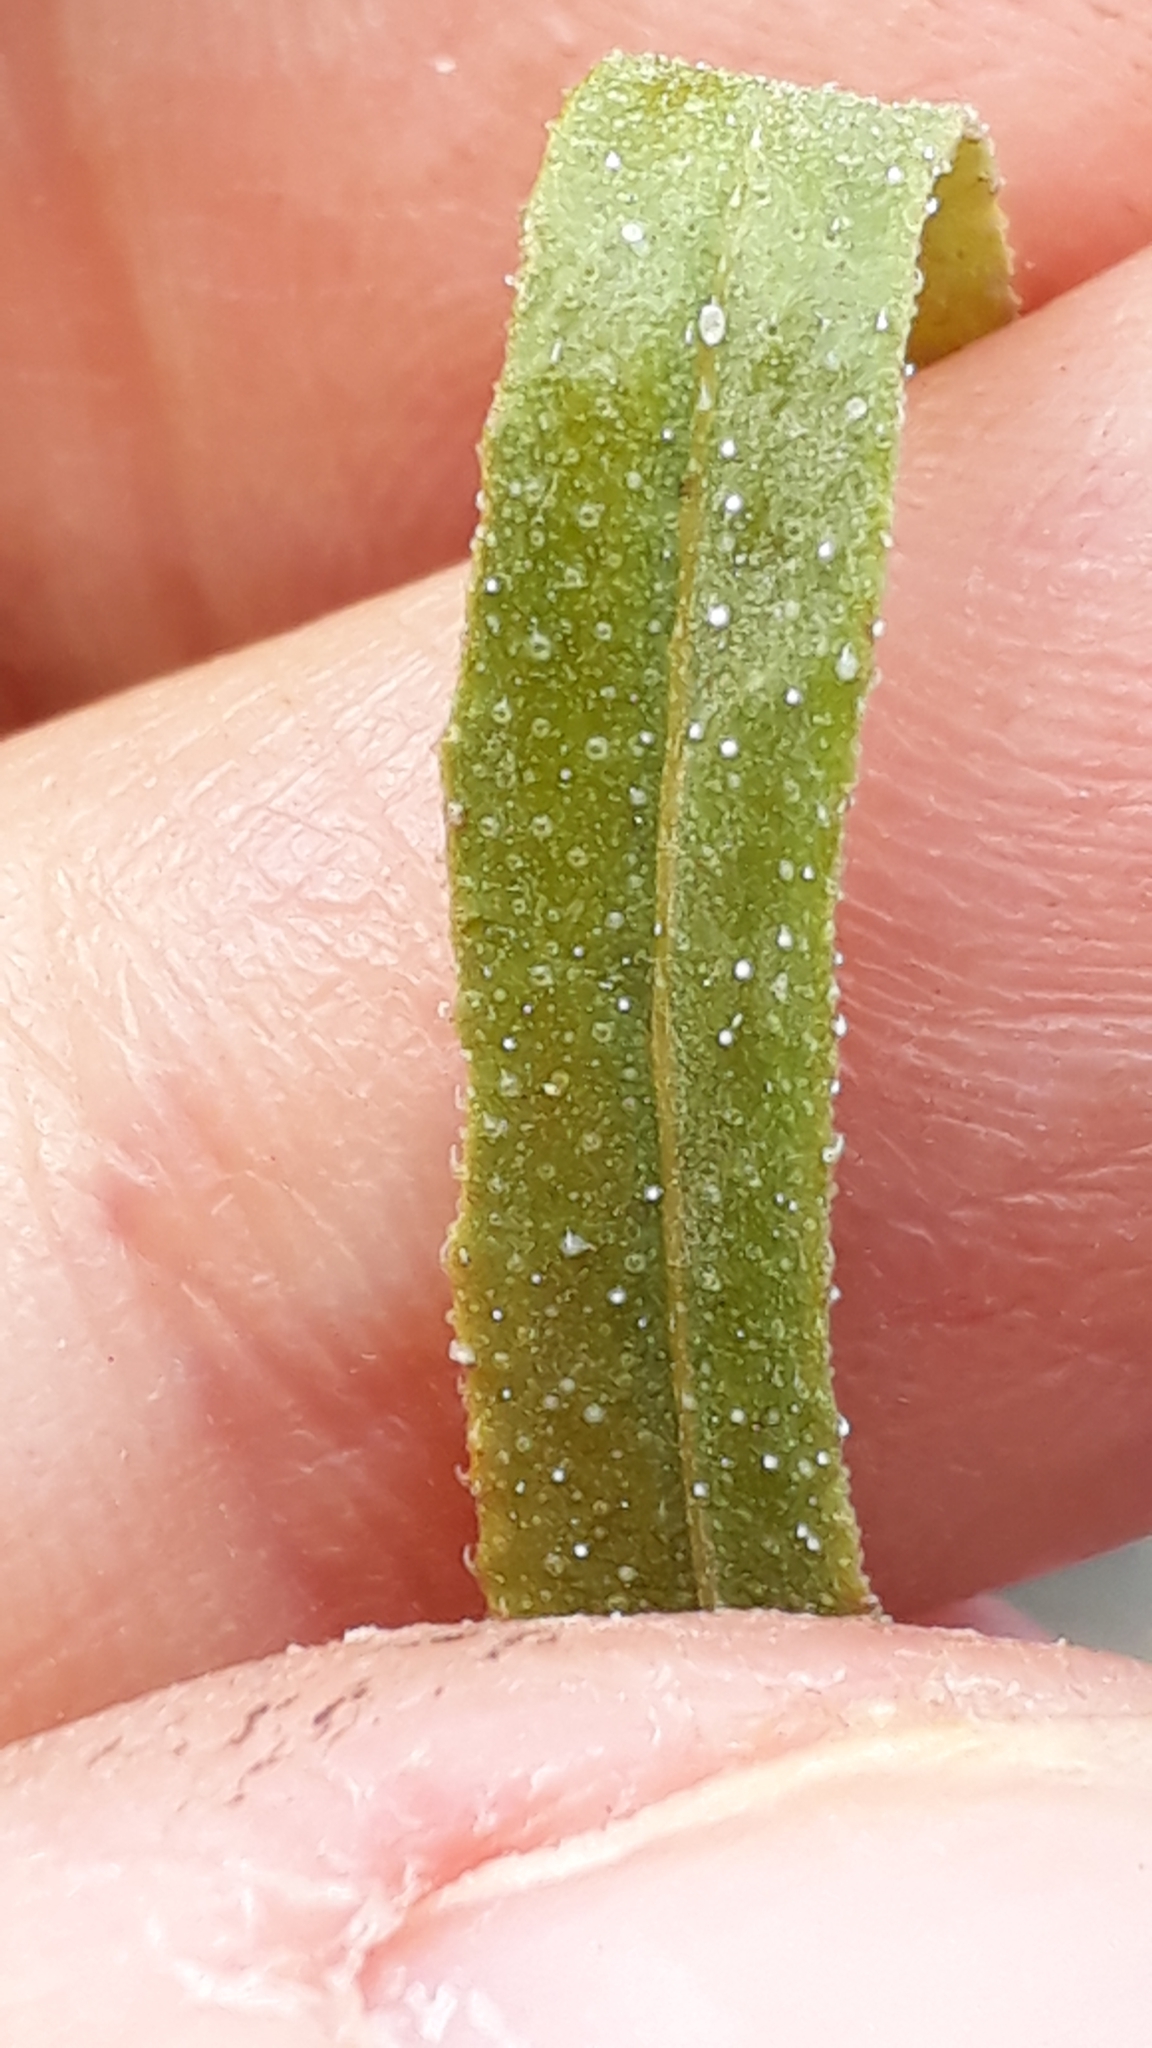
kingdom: Plantae
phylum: Tracheophyta
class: Magnoliopsida
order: Boraginales
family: Heliotropiaceae
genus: Heliotropium
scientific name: Heliotropium messerschmidioides
